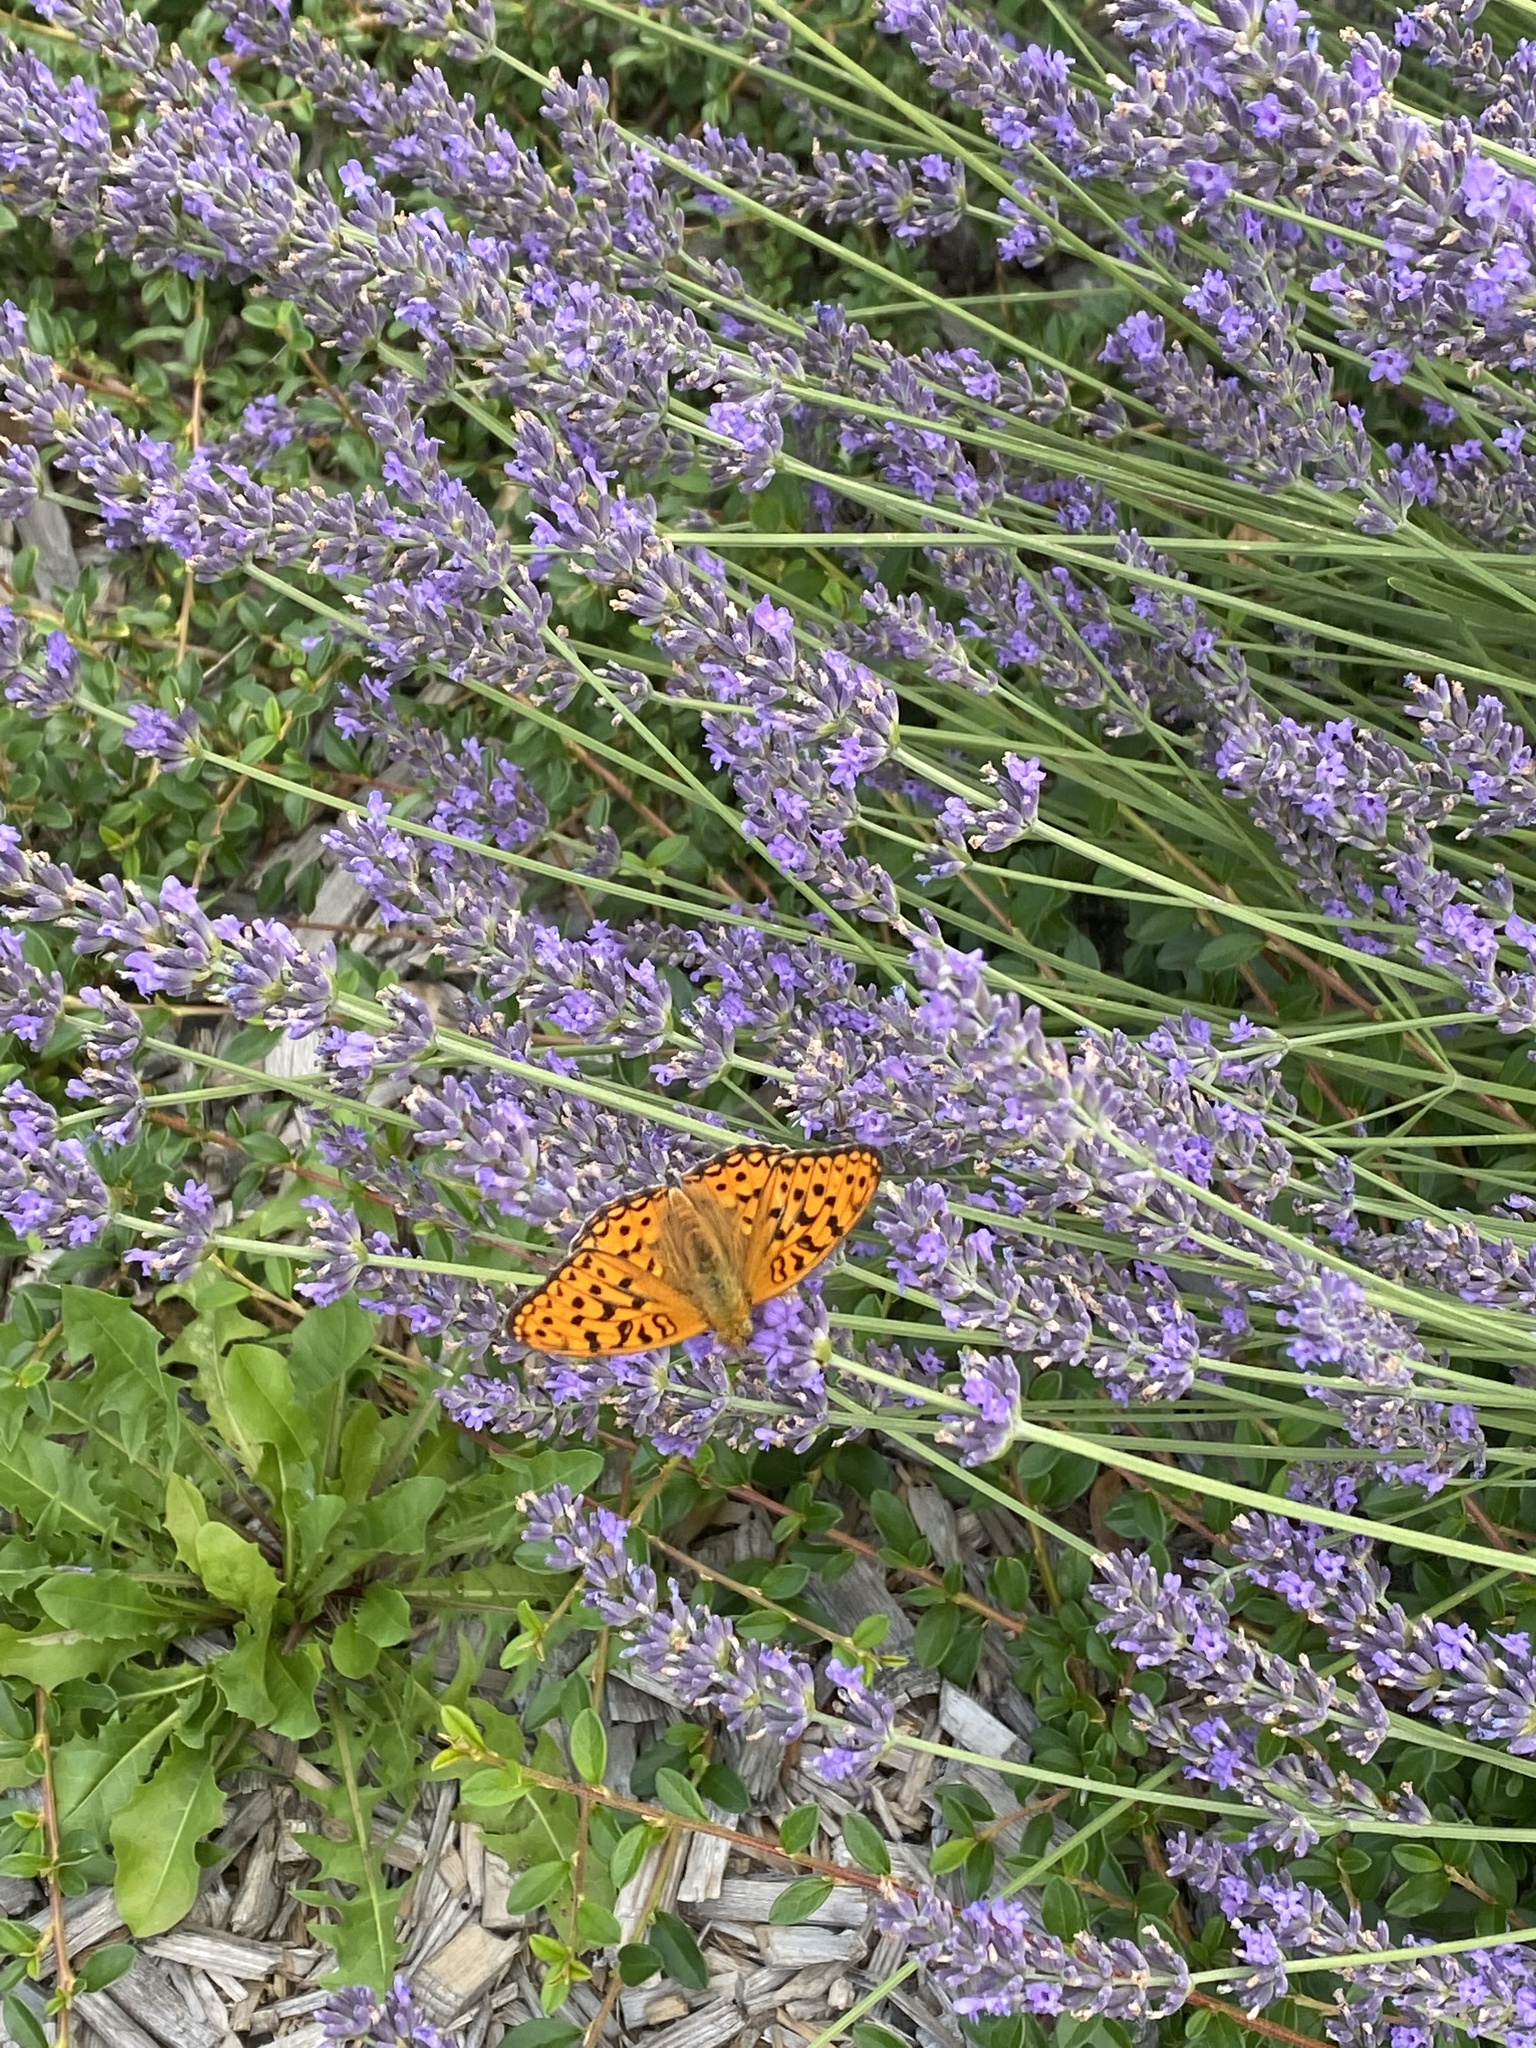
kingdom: Animalia
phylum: Arthropoda
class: Insecta
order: Lepidoptera
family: Nymphalidae
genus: Fabriciana
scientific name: Fabriciana adippe
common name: High brown fritillary
